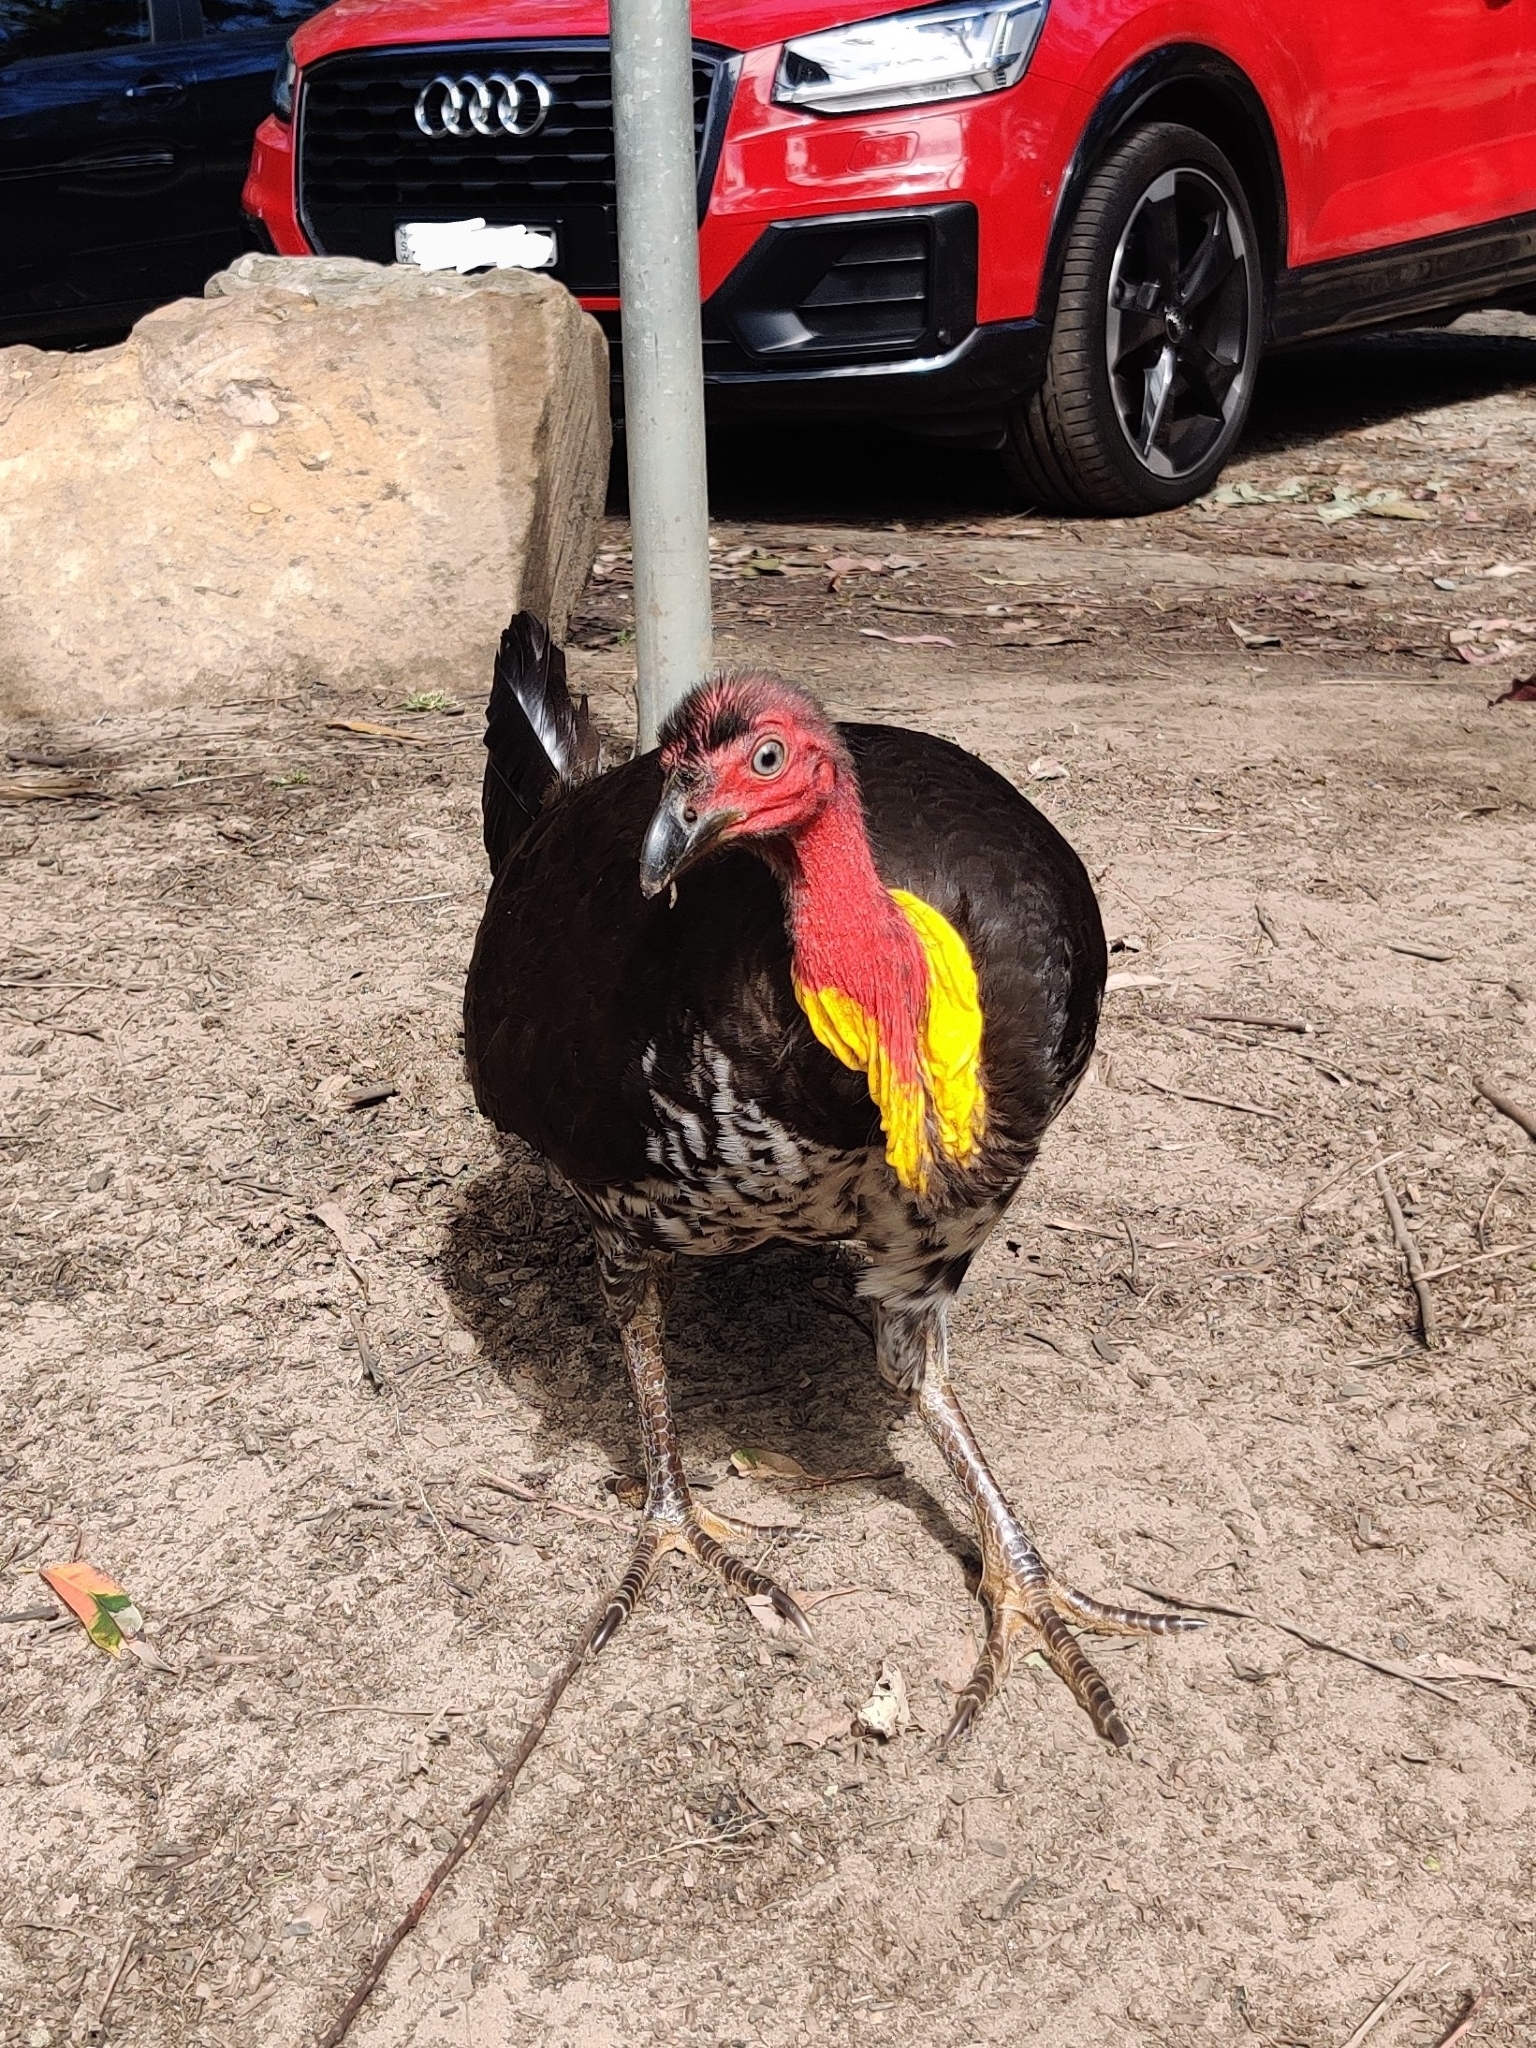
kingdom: Animalia
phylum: Chordata
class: Aves
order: Galliformes
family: Megapodiidae
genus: Alectura
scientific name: Alectura lathami
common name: Australian brushturkey
